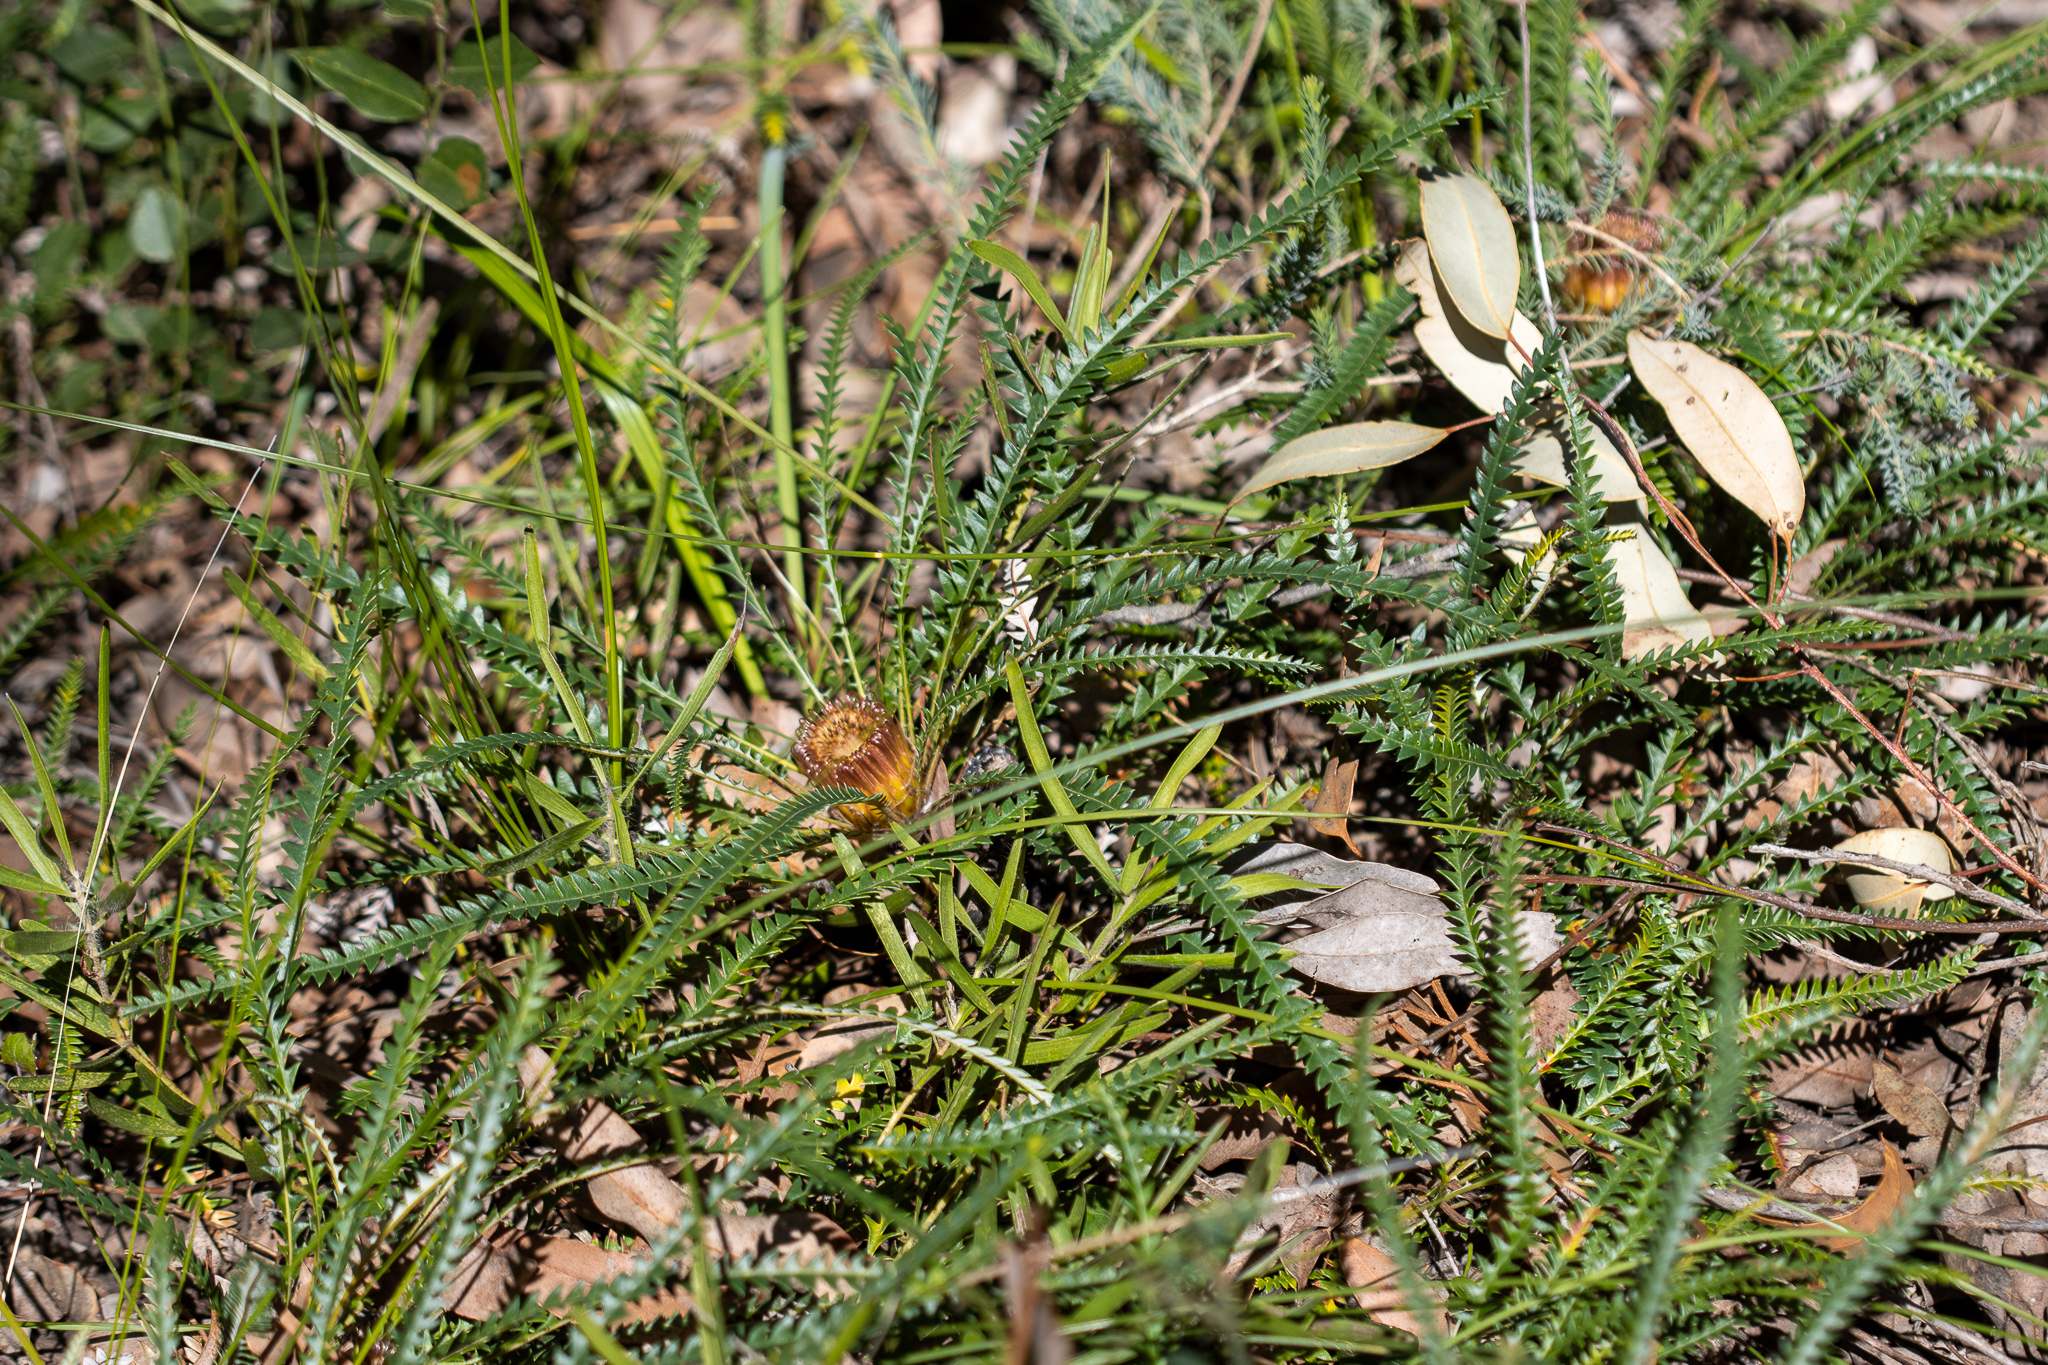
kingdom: Plantae
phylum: Tracheophyta
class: Magnoliopsida
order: Proteales
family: Proteaceae
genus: Banksia
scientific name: Banksia dallanneyi
